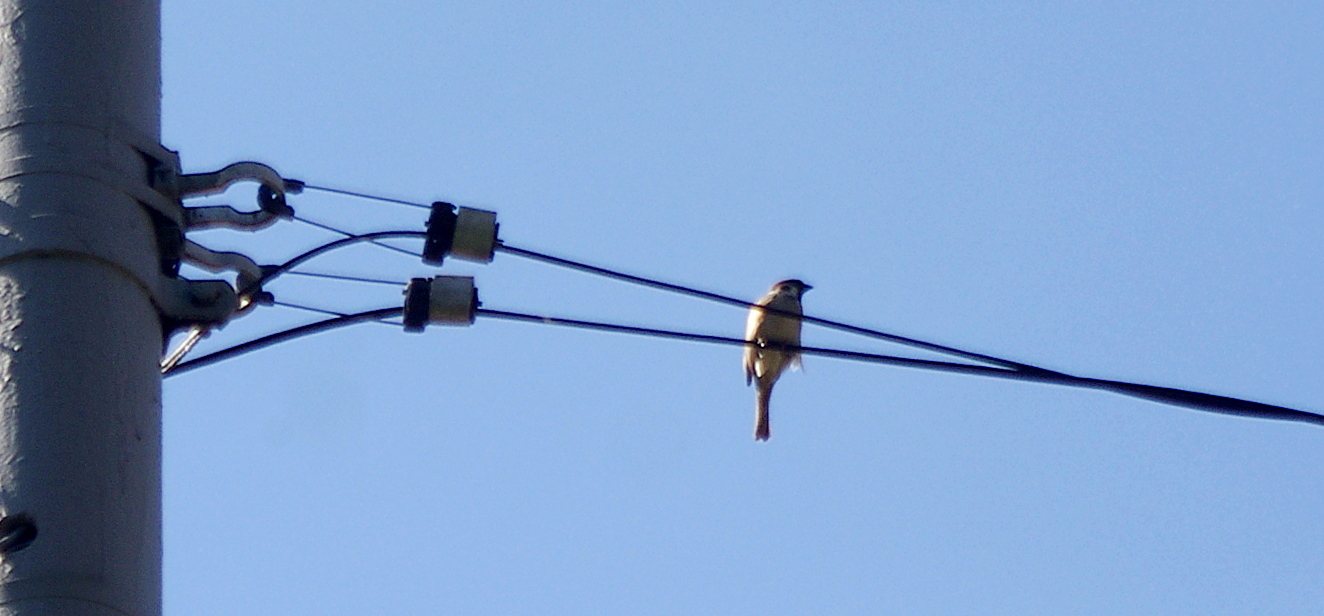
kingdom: Animalia
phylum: Chordata
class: Aves
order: Passeriformes
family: Passeridae
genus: Passer
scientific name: Passer montanus
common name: Eurasian tree sparrow
